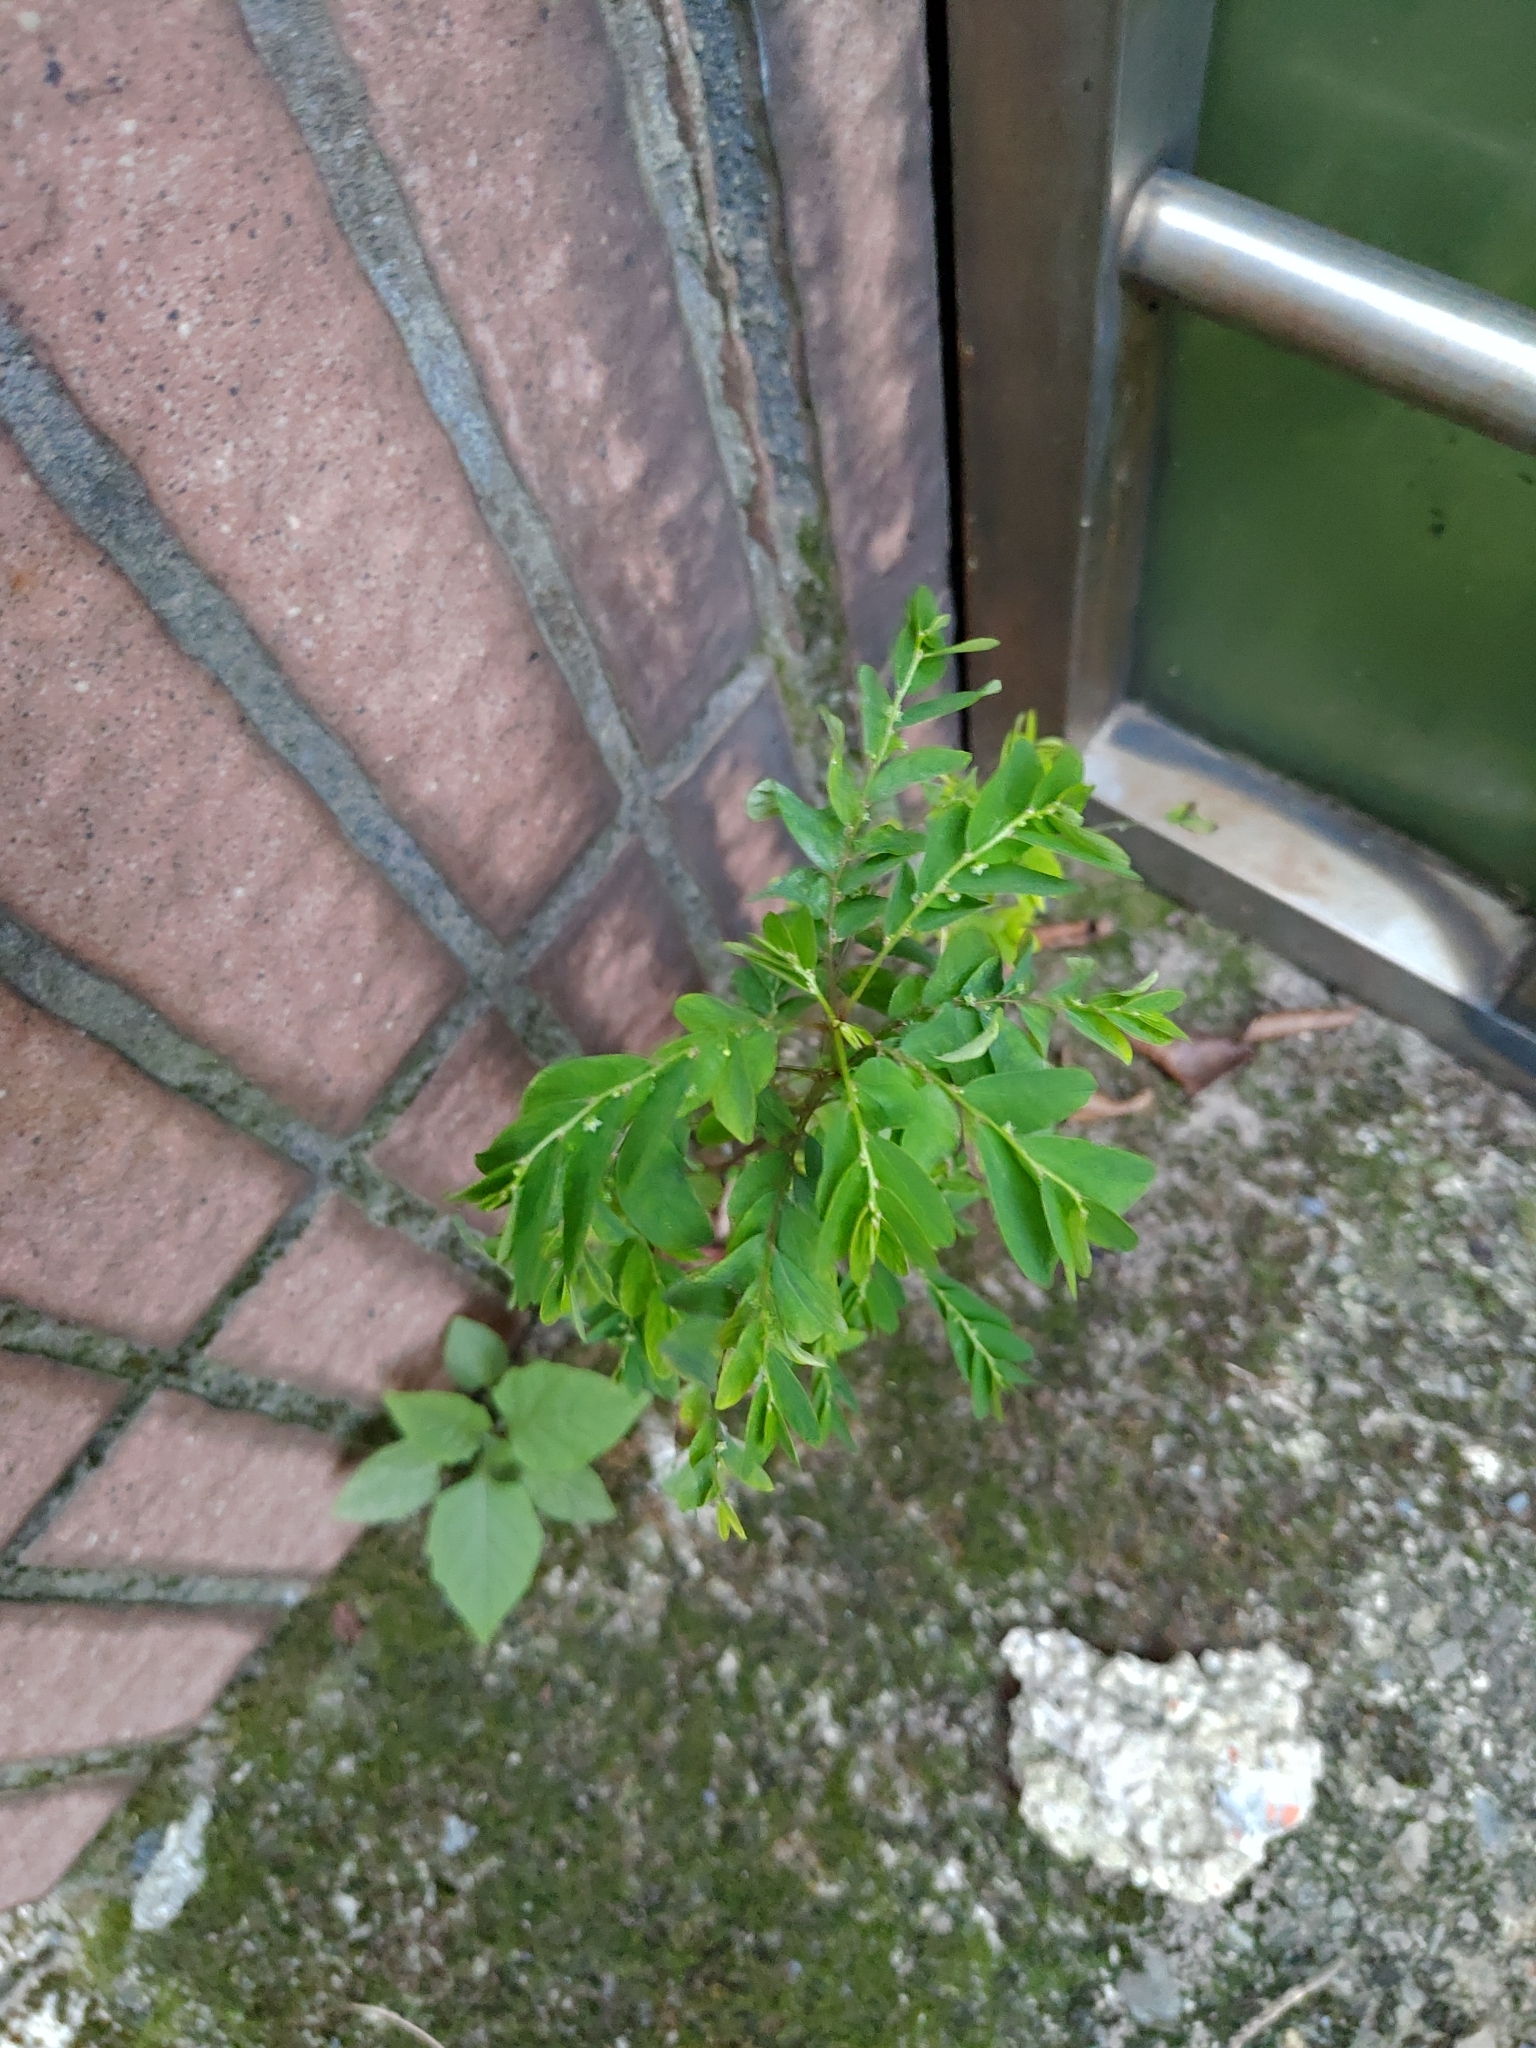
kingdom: Plantae
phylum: Tracheophyta
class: Magnoliopsida
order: Malpighiales
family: Phyllanthaceae
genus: Phyllanthus
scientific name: Phyllanthus tenellus
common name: Mascarene island leaf-flower
